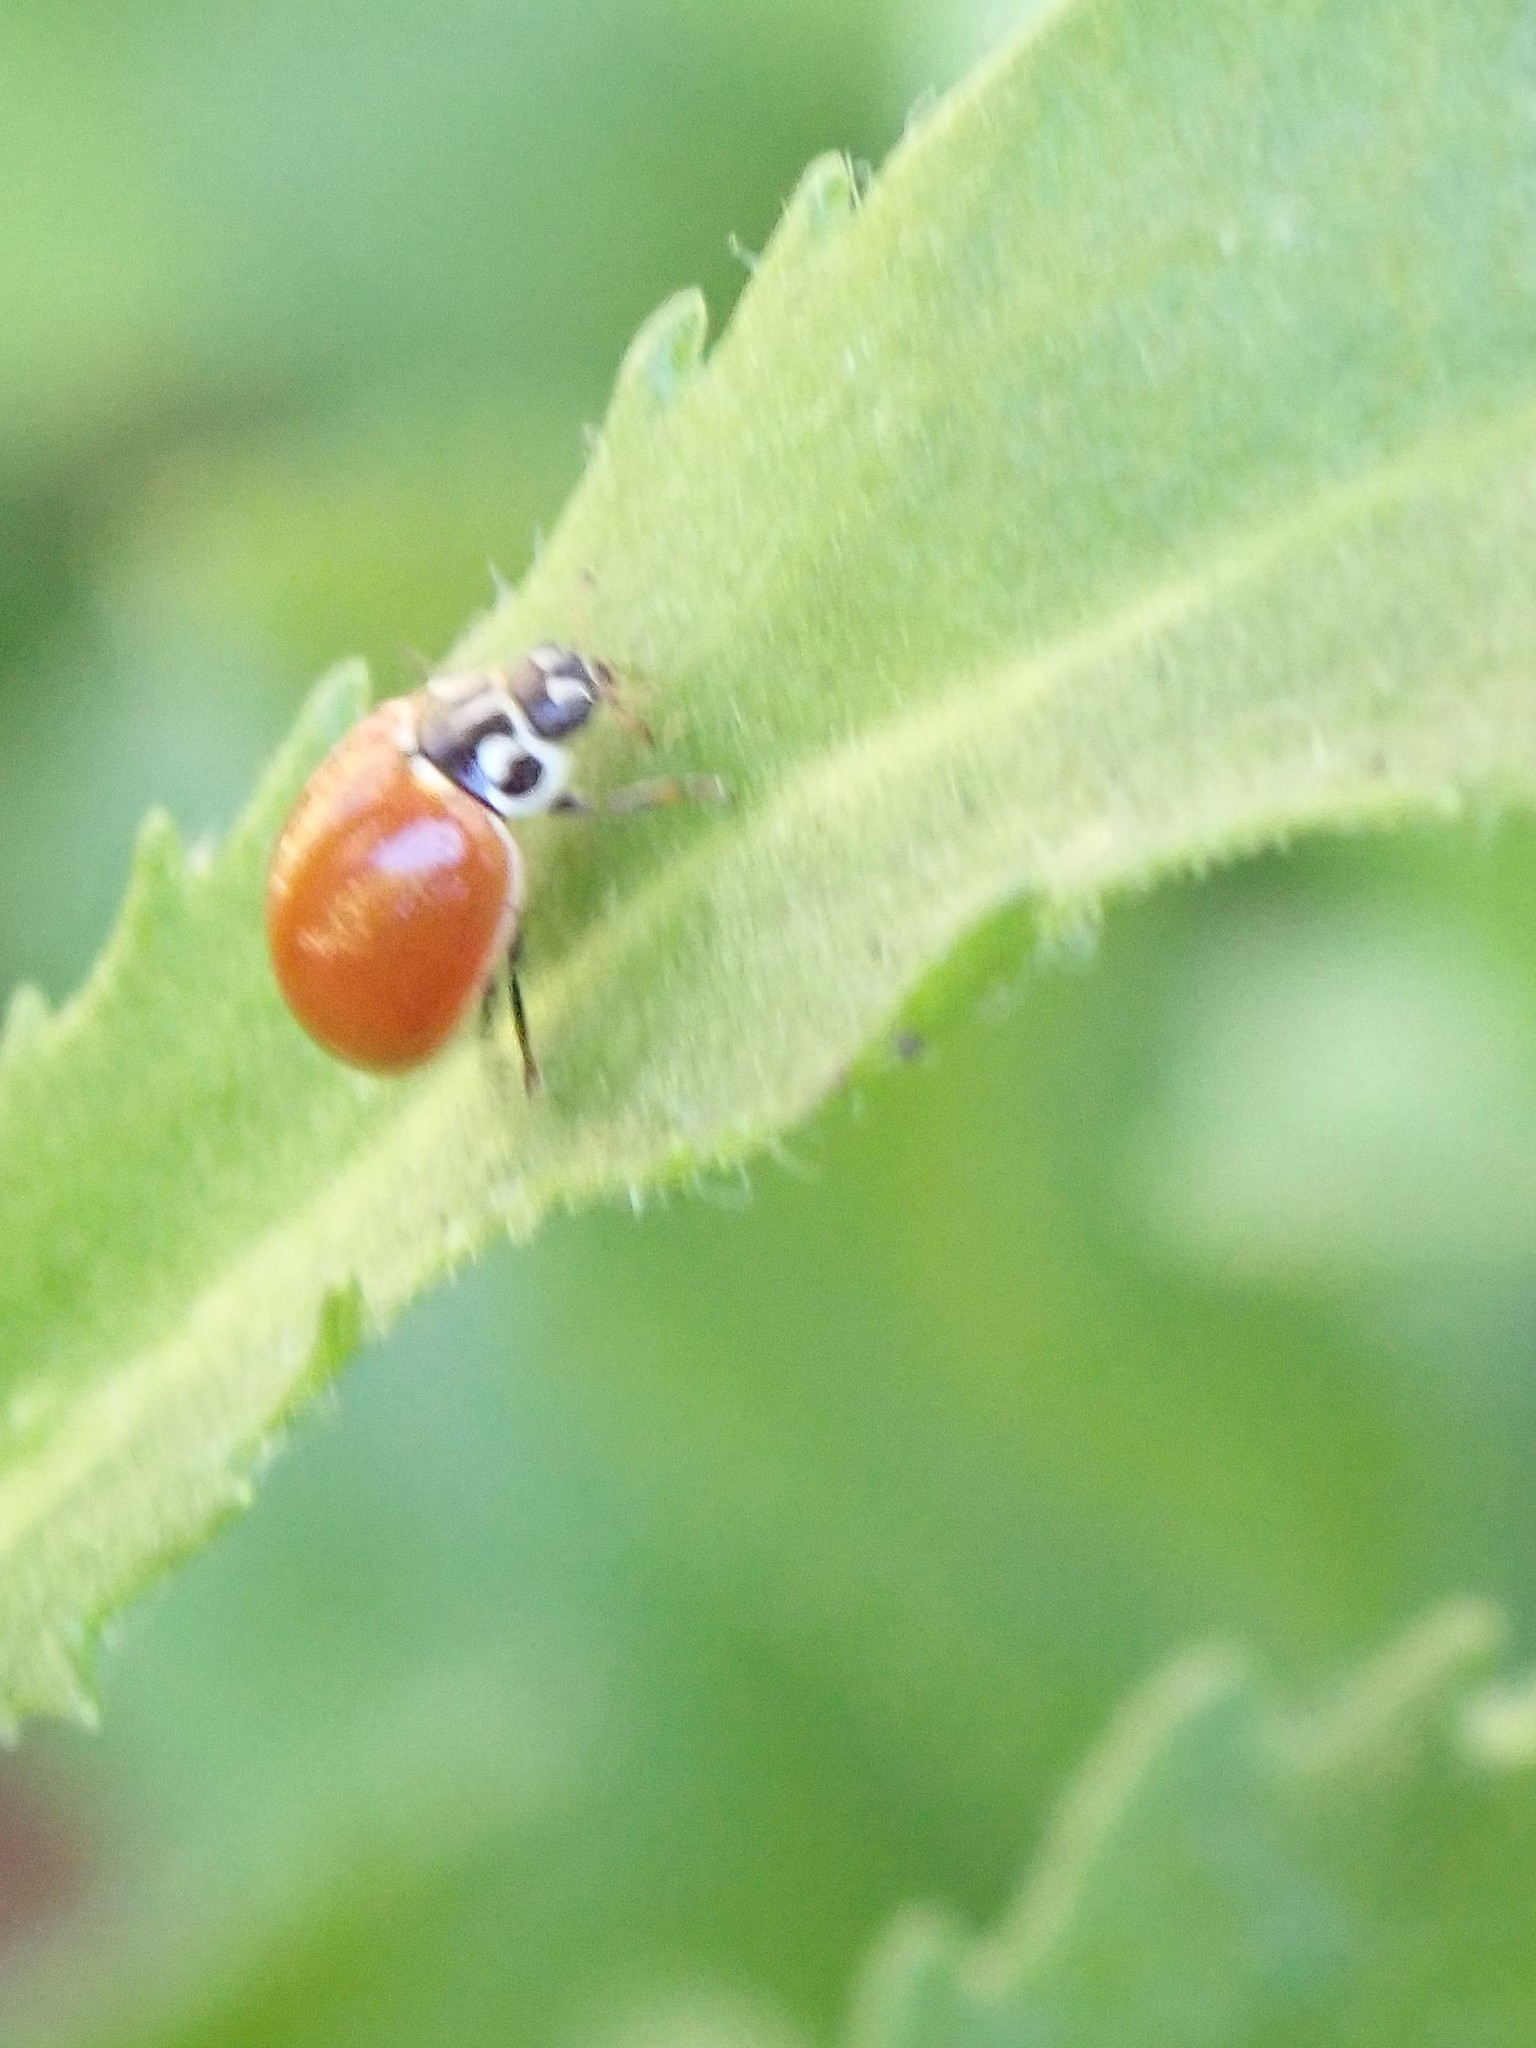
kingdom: Animalia
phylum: Arthropoda
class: Insecta
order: Coleoptera
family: Coccinellidae
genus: Cycloneda
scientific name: Cycloneda polita
